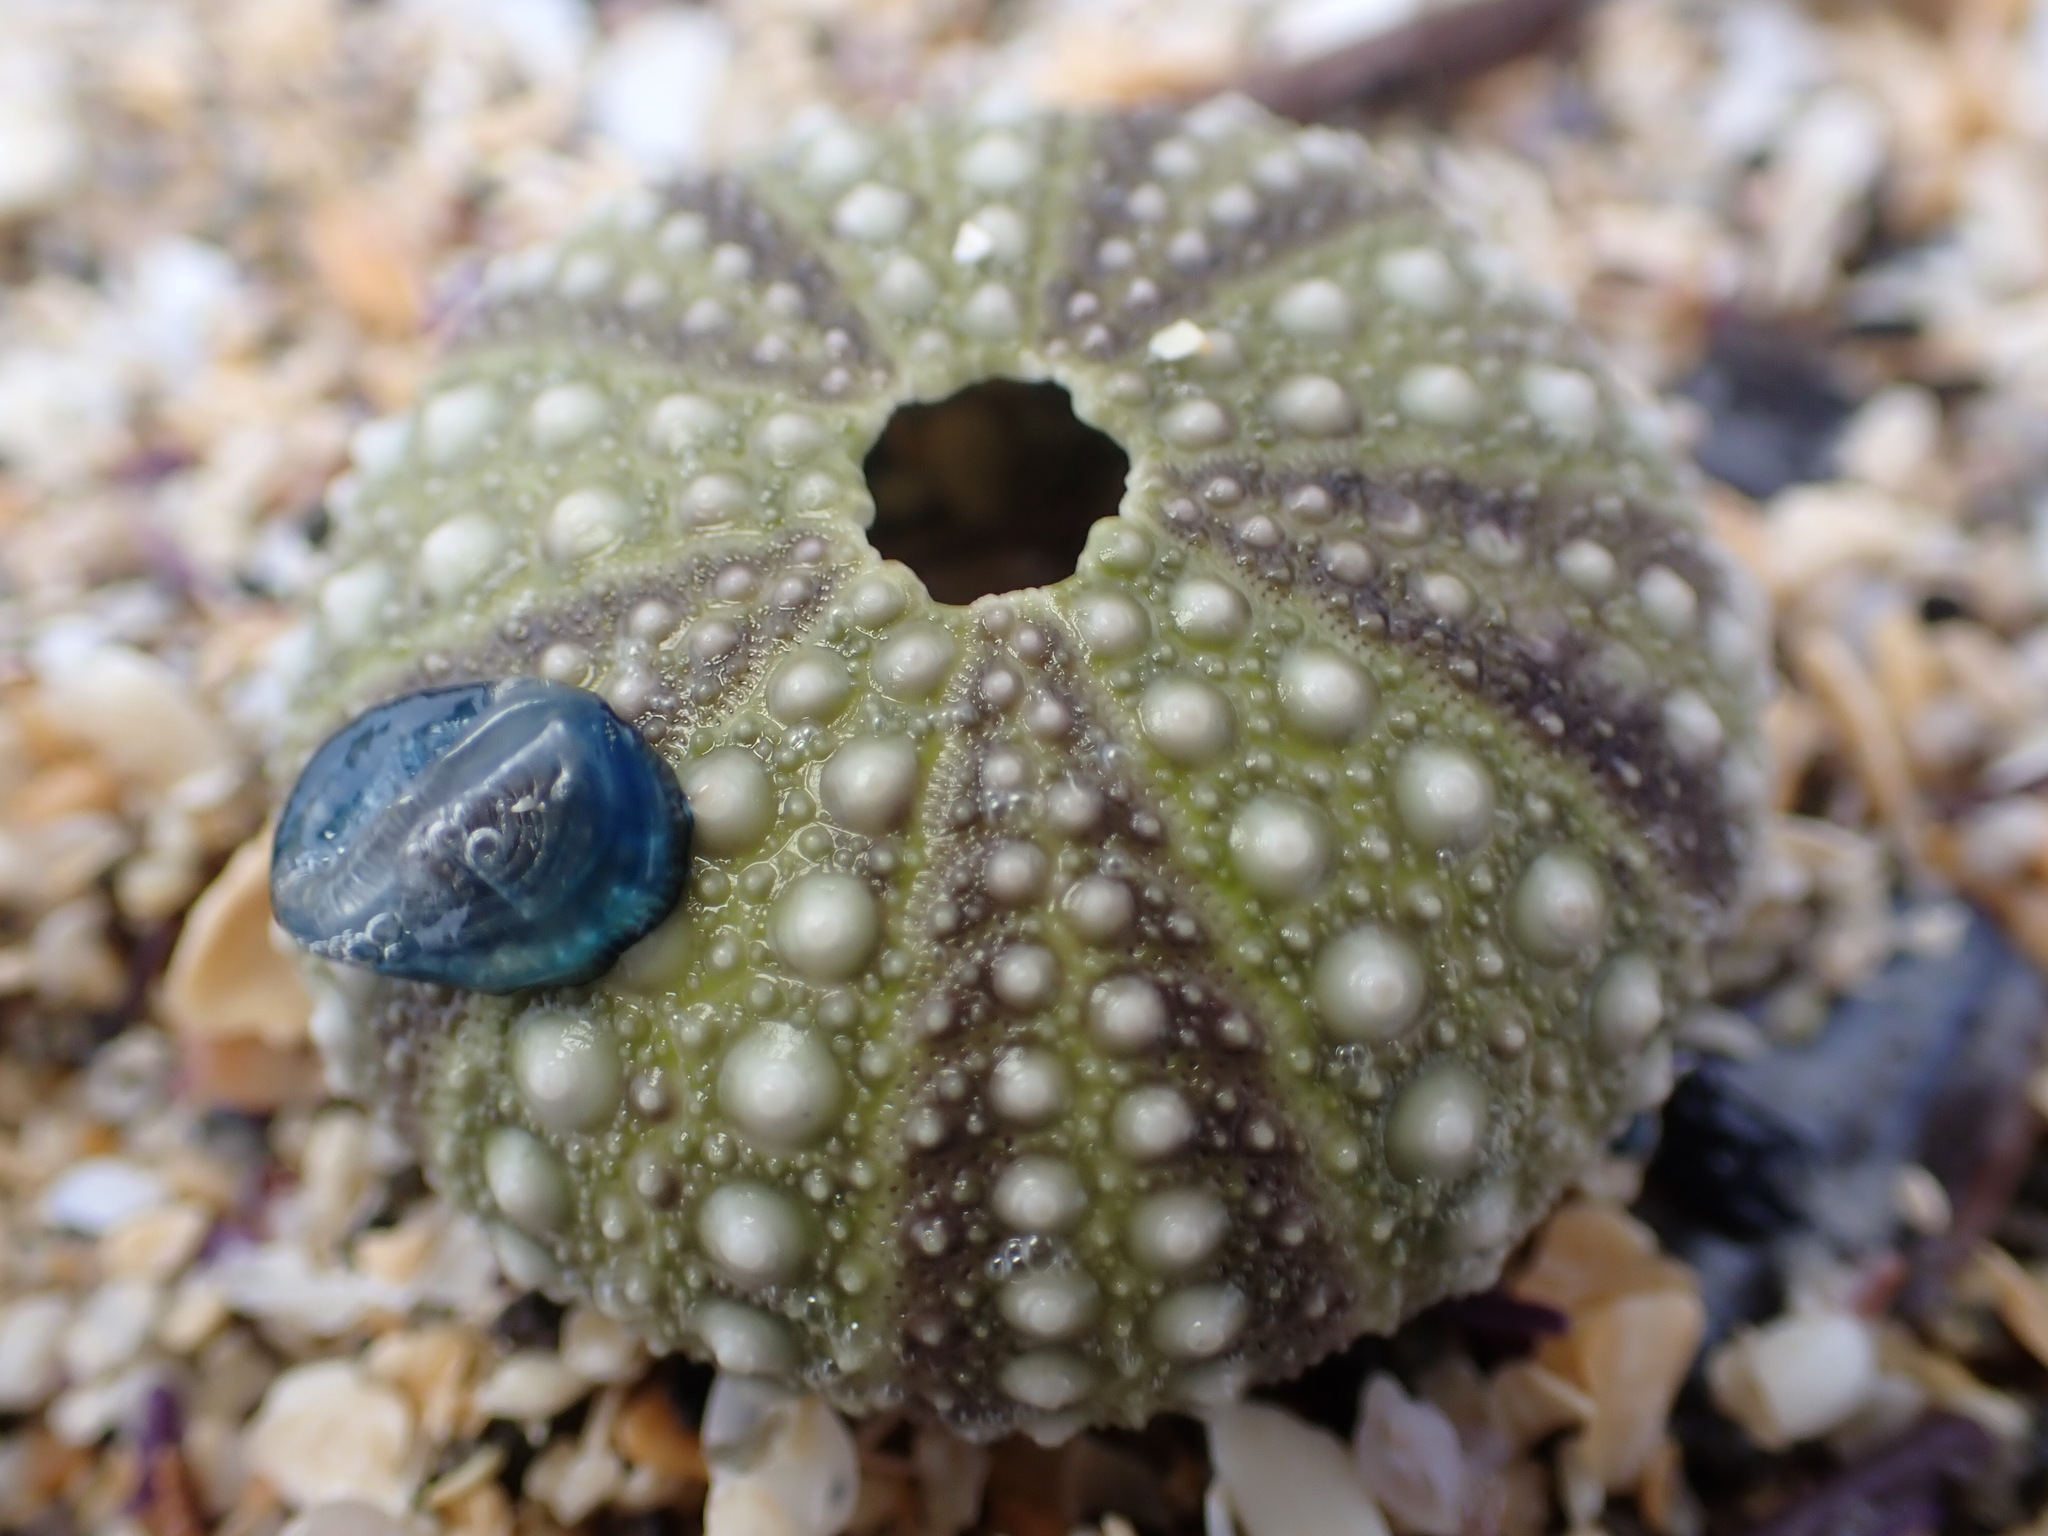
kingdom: Animalia
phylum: Echinodermata
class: Echinoidea
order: Camarodonta
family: Strongylocentrotidae
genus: Strongylocentrotus
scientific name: Strongylocentrotus purpuratus
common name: Purple sea urchin
